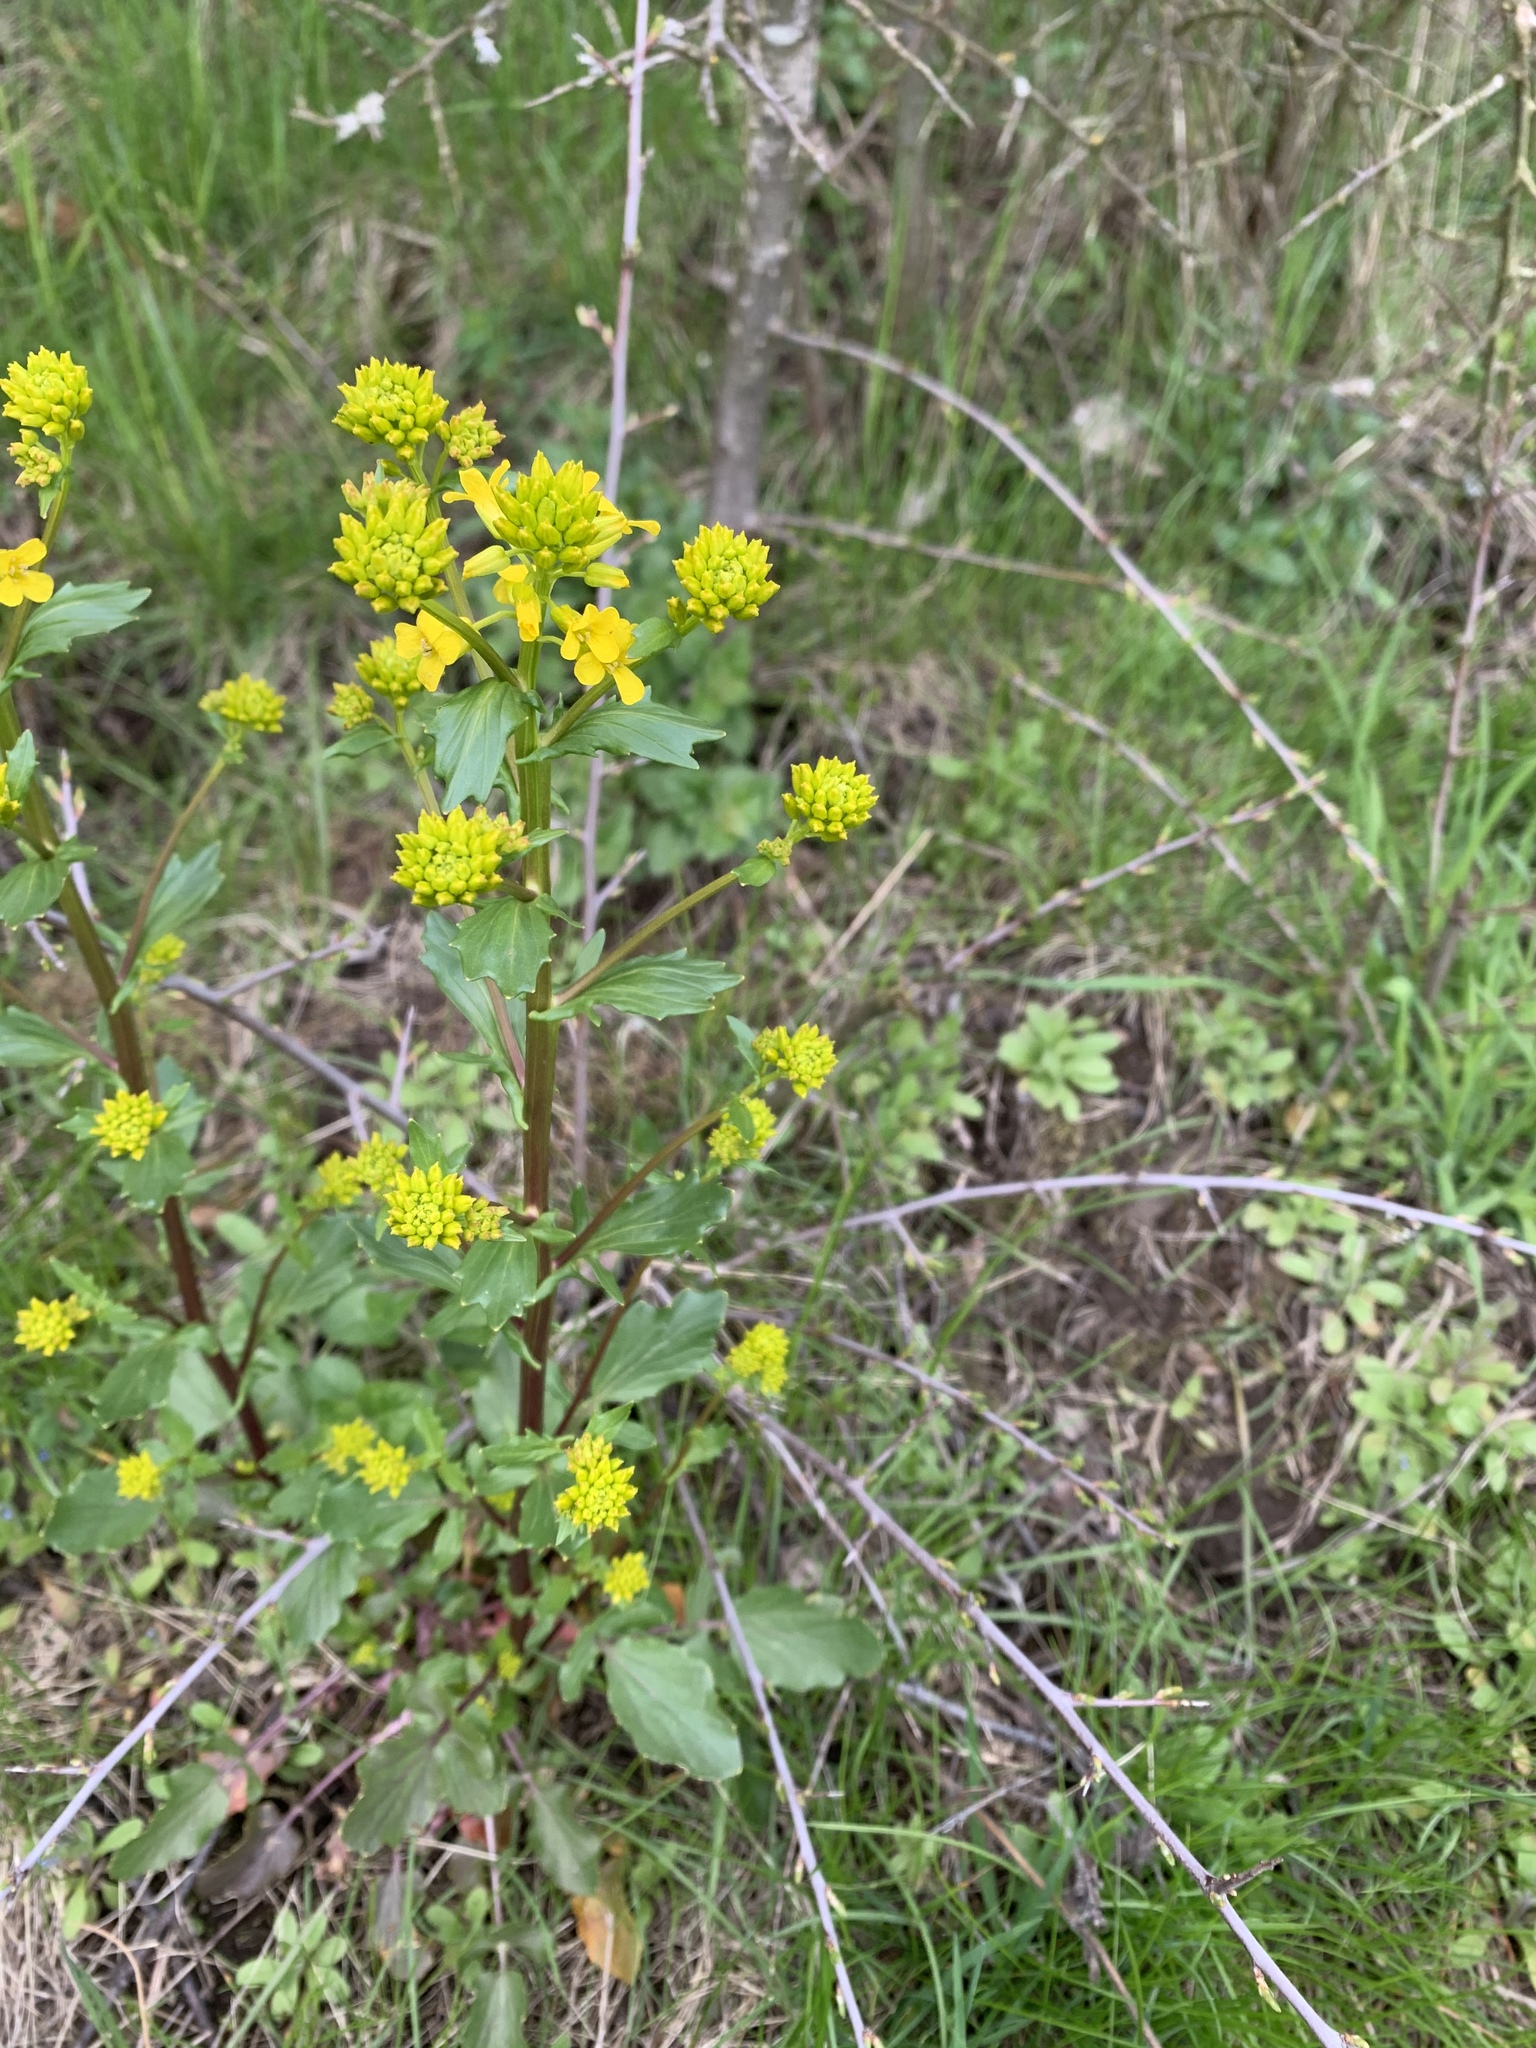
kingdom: Plantae
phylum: Tracheophyta
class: Magnoliopsida
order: Brassicales
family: Brassicaceae
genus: Barbarea
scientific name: Barbarea vulgaris
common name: Cressy-greens
